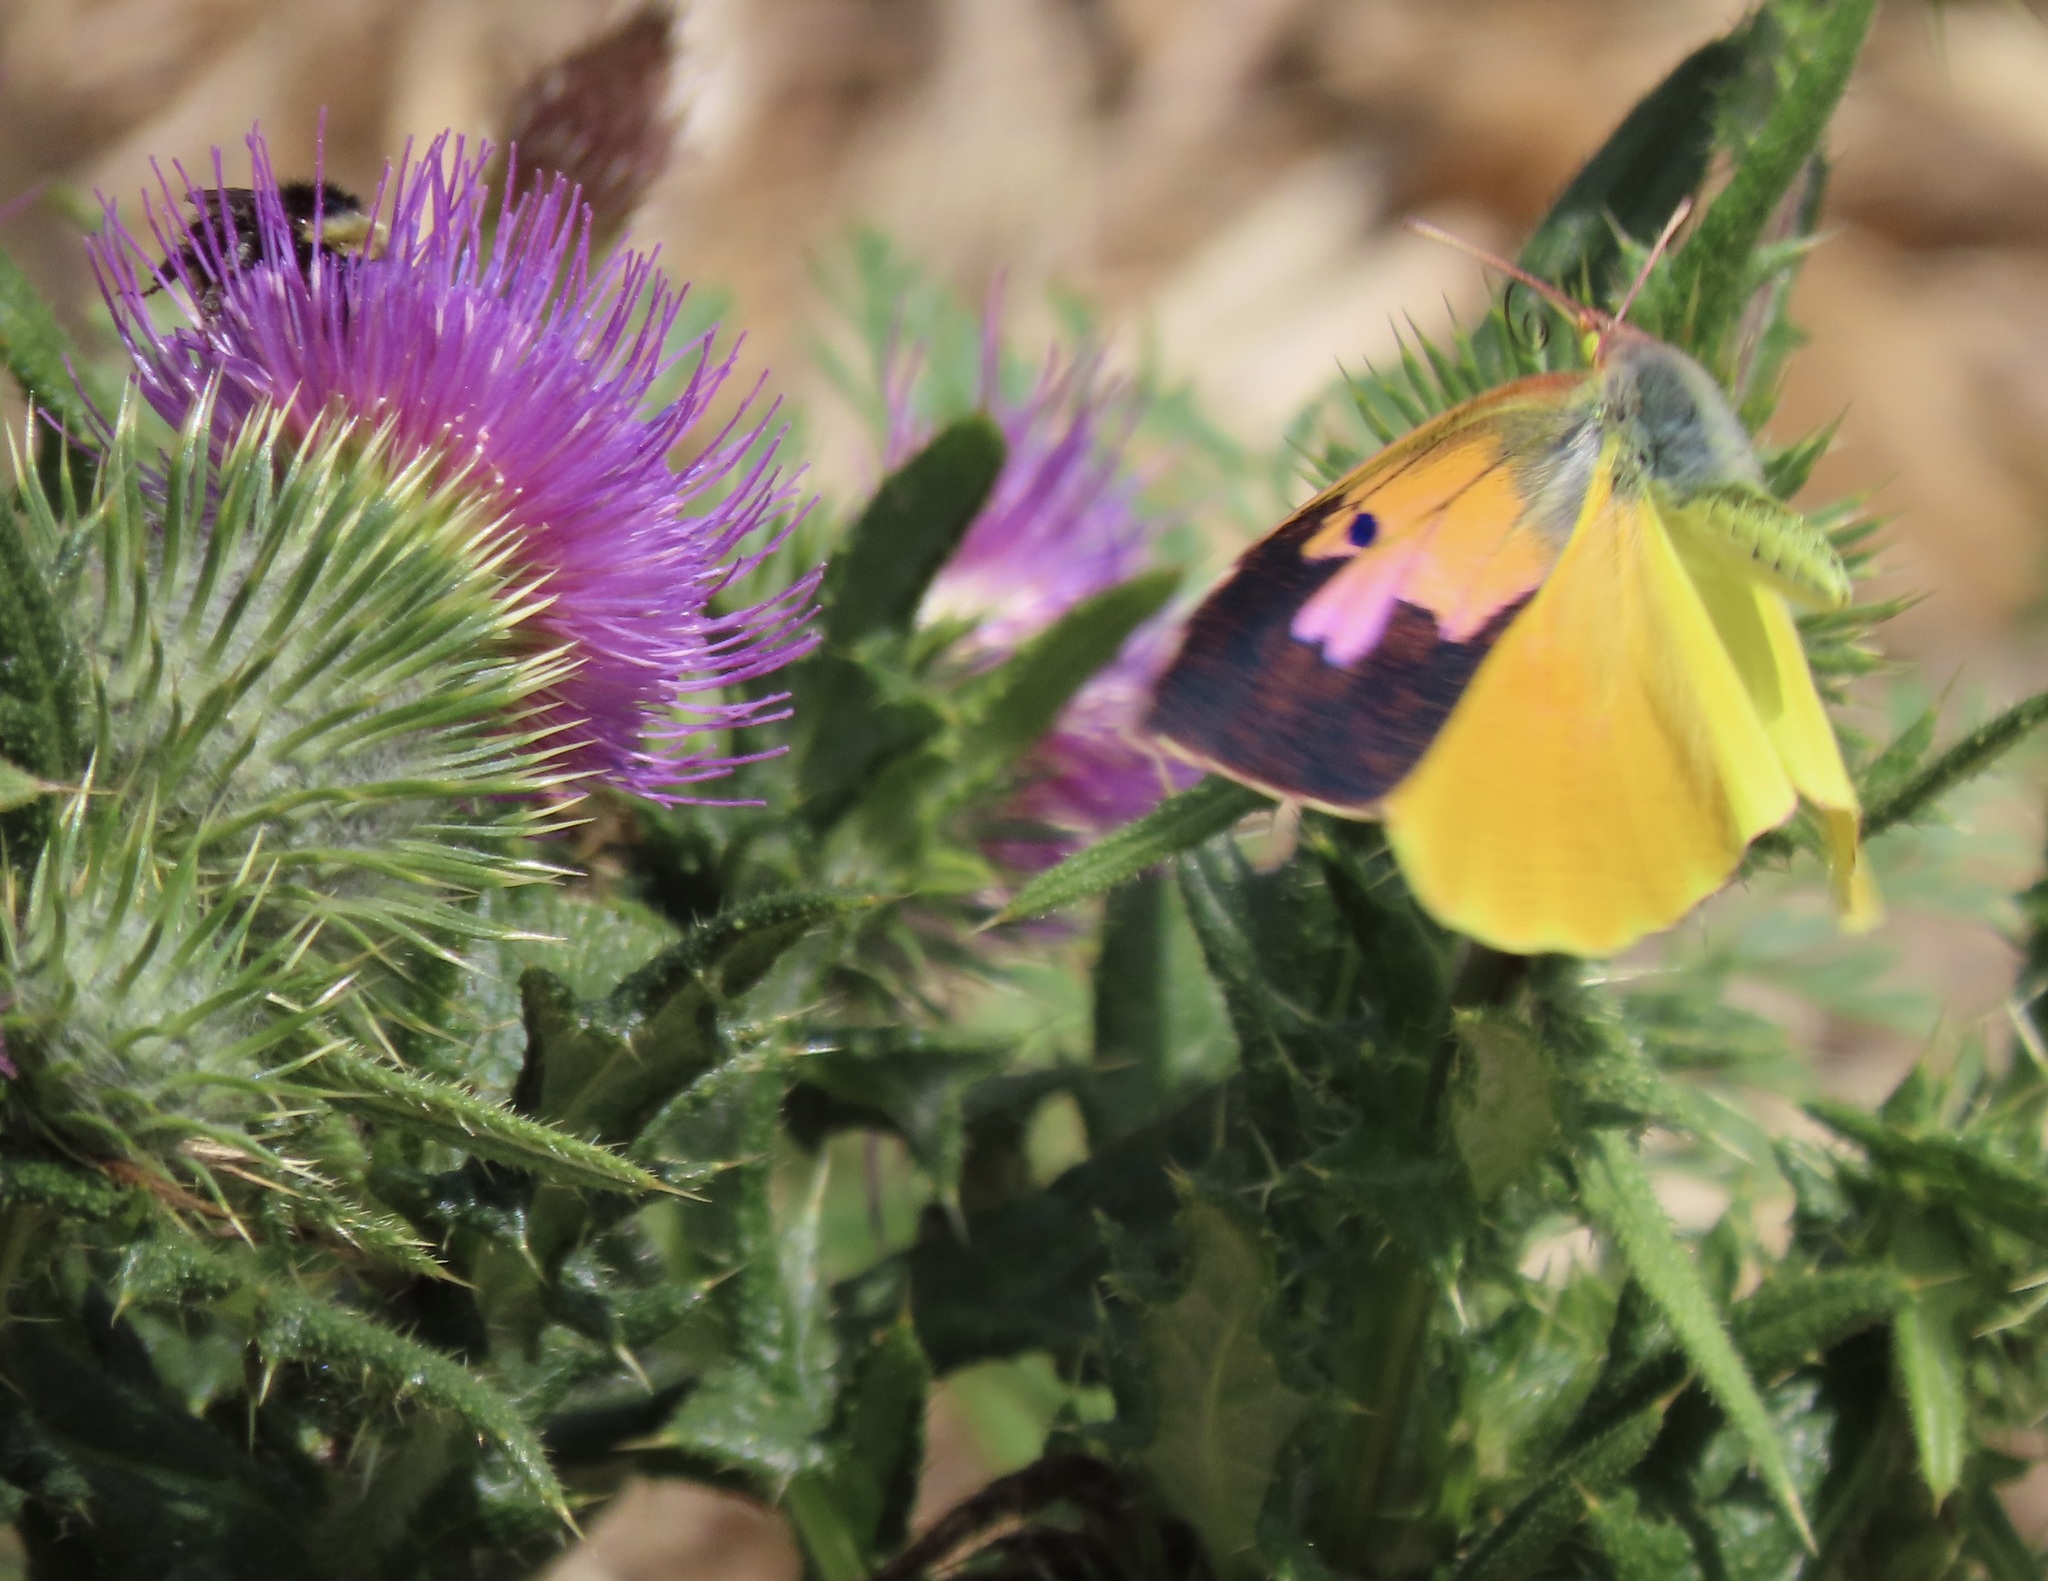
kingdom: Animalia
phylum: Arthropoda
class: Insecta
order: Lepidoptera
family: Pieridae
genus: Zerene
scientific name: Zerene eurydice
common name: California dogface
